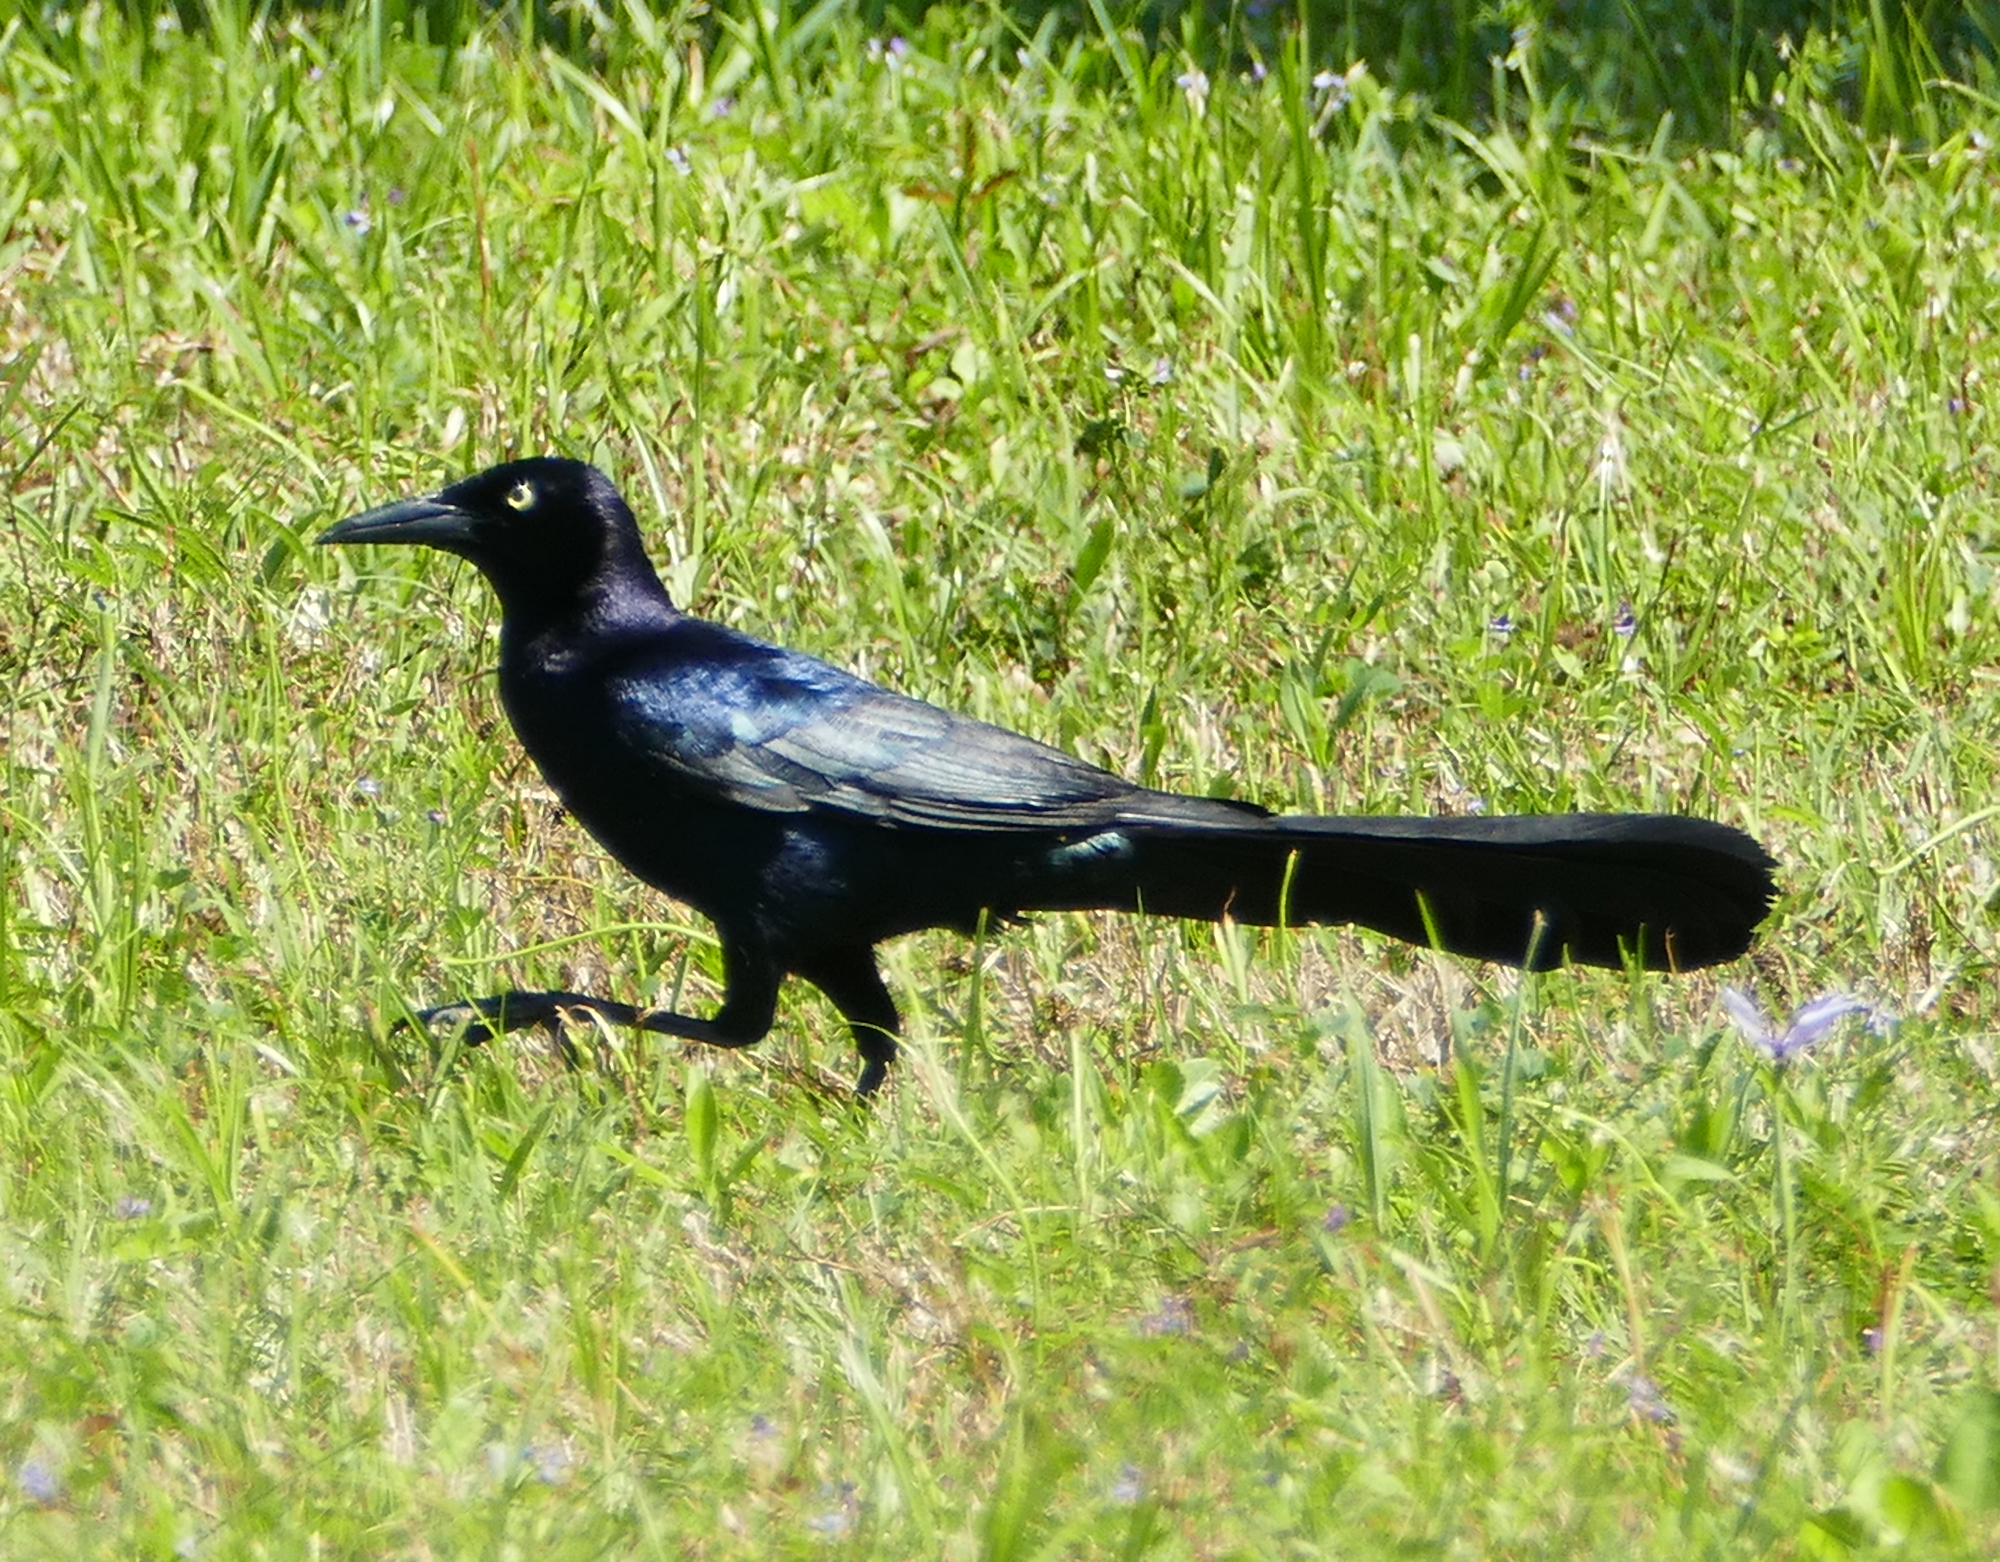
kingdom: Animalia
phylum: Chordata
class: Aves
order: Passeriformes
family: Icteridae
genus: Quiscalus
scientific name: Quiscalus mexicanus
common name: Great-tailed grackle
